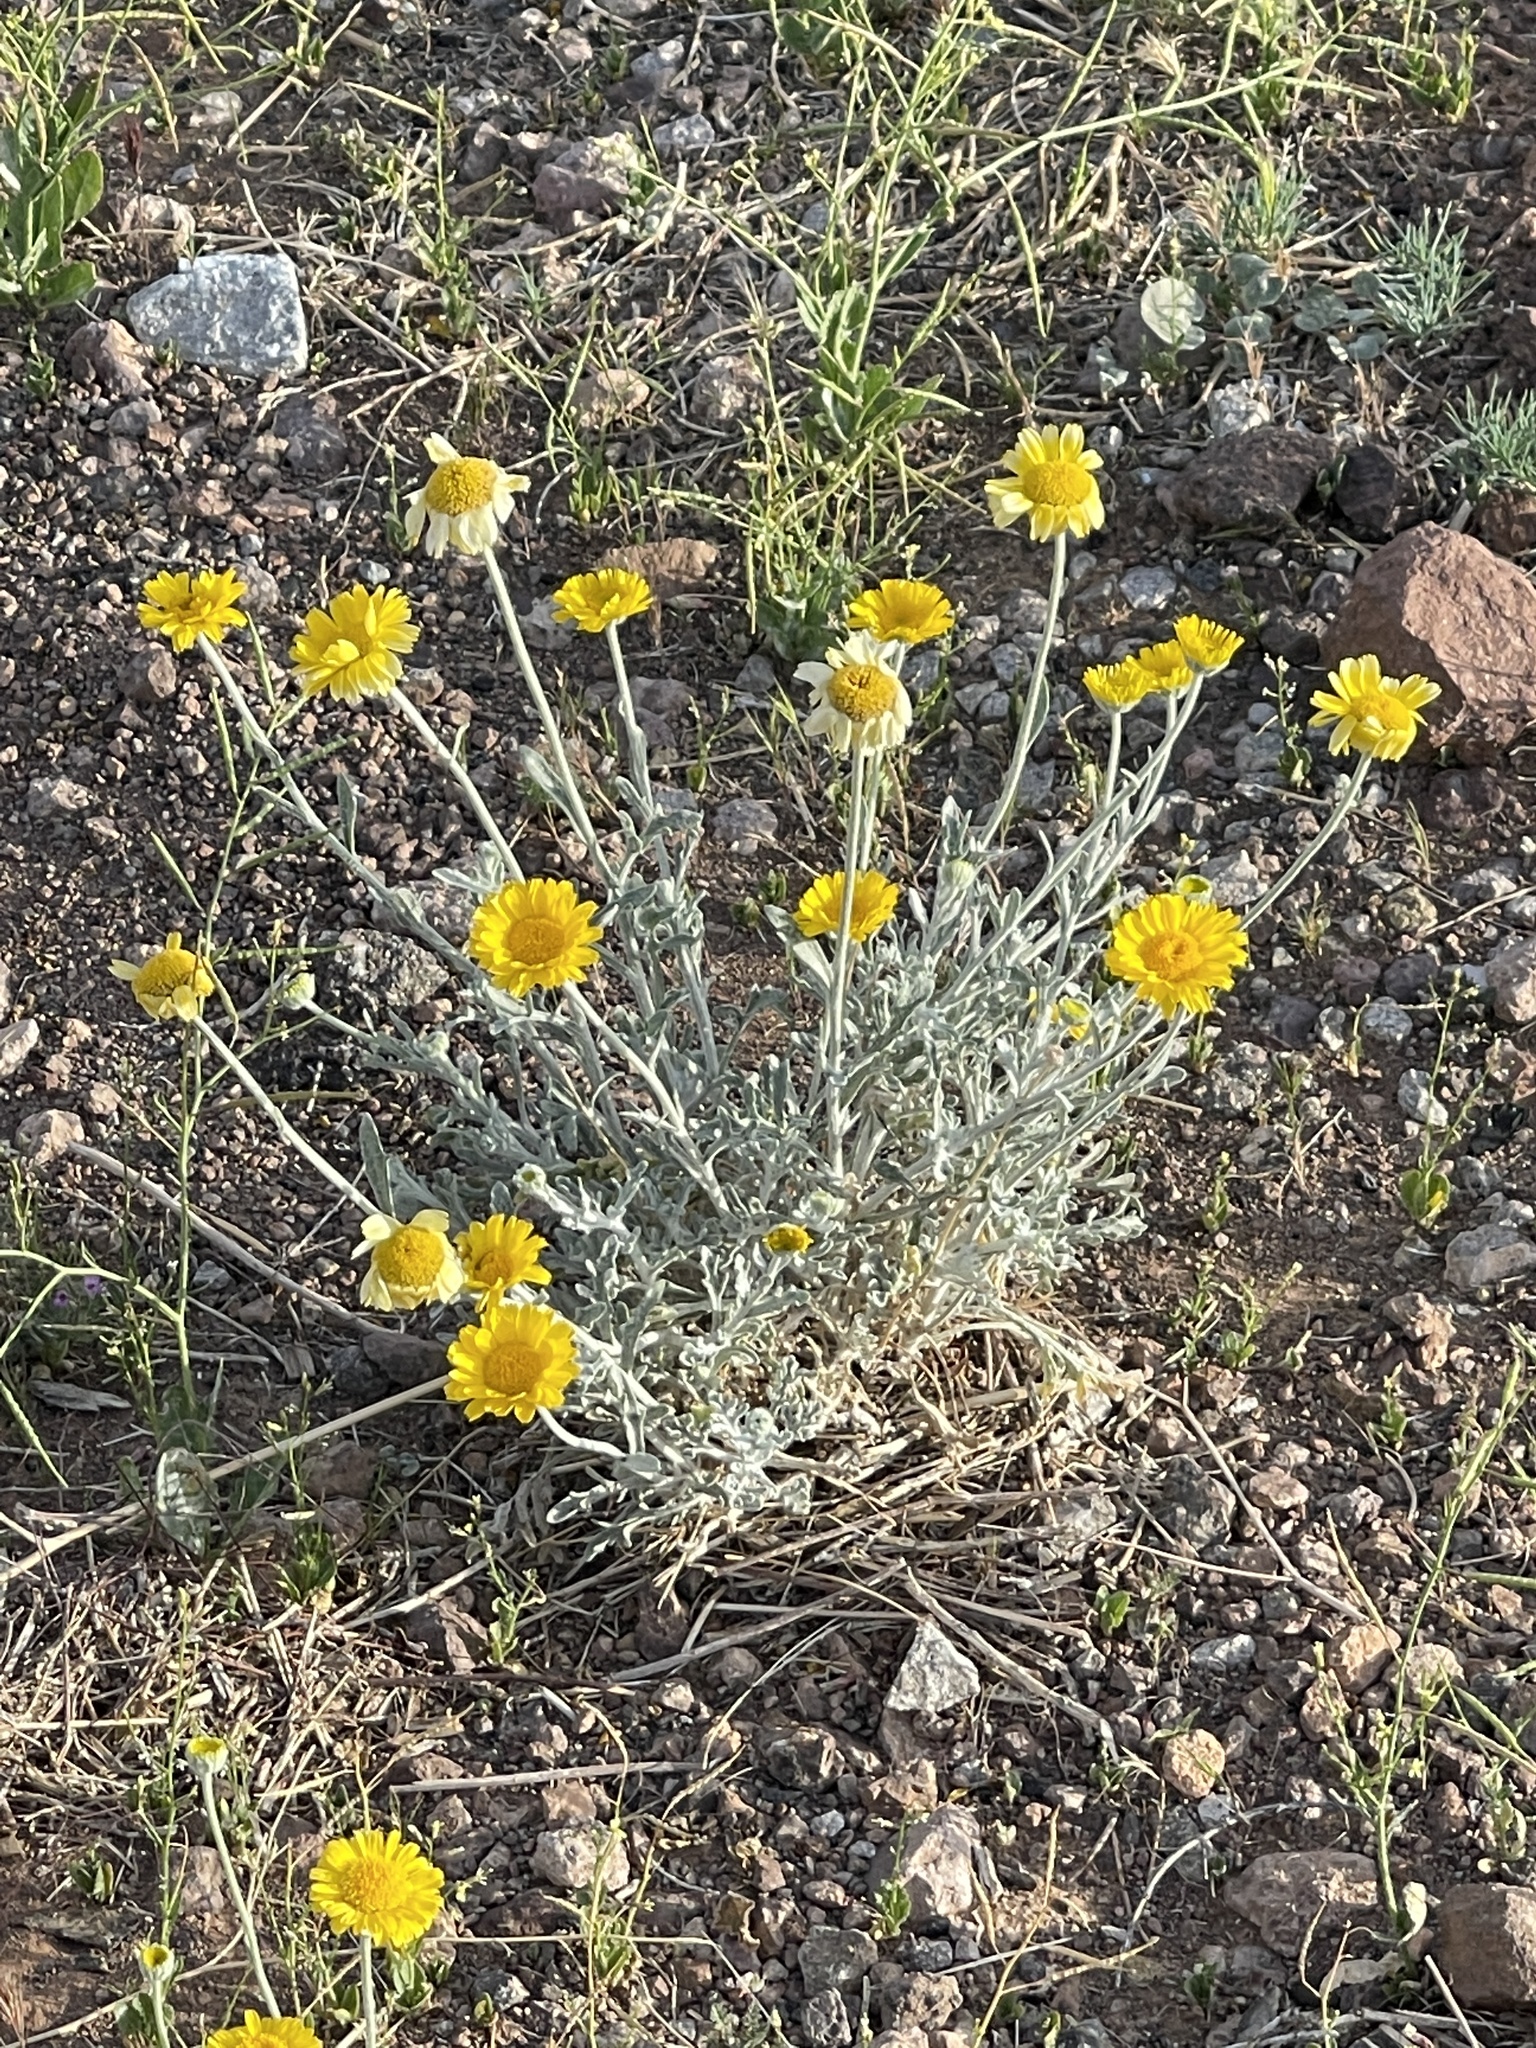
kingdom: Plantae
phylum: Tracheophyta
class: Magnoliopsida
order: Asterales
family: Asteraceae
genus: Baileya
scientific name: Baileya multiradiata
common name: Desert-marigold
